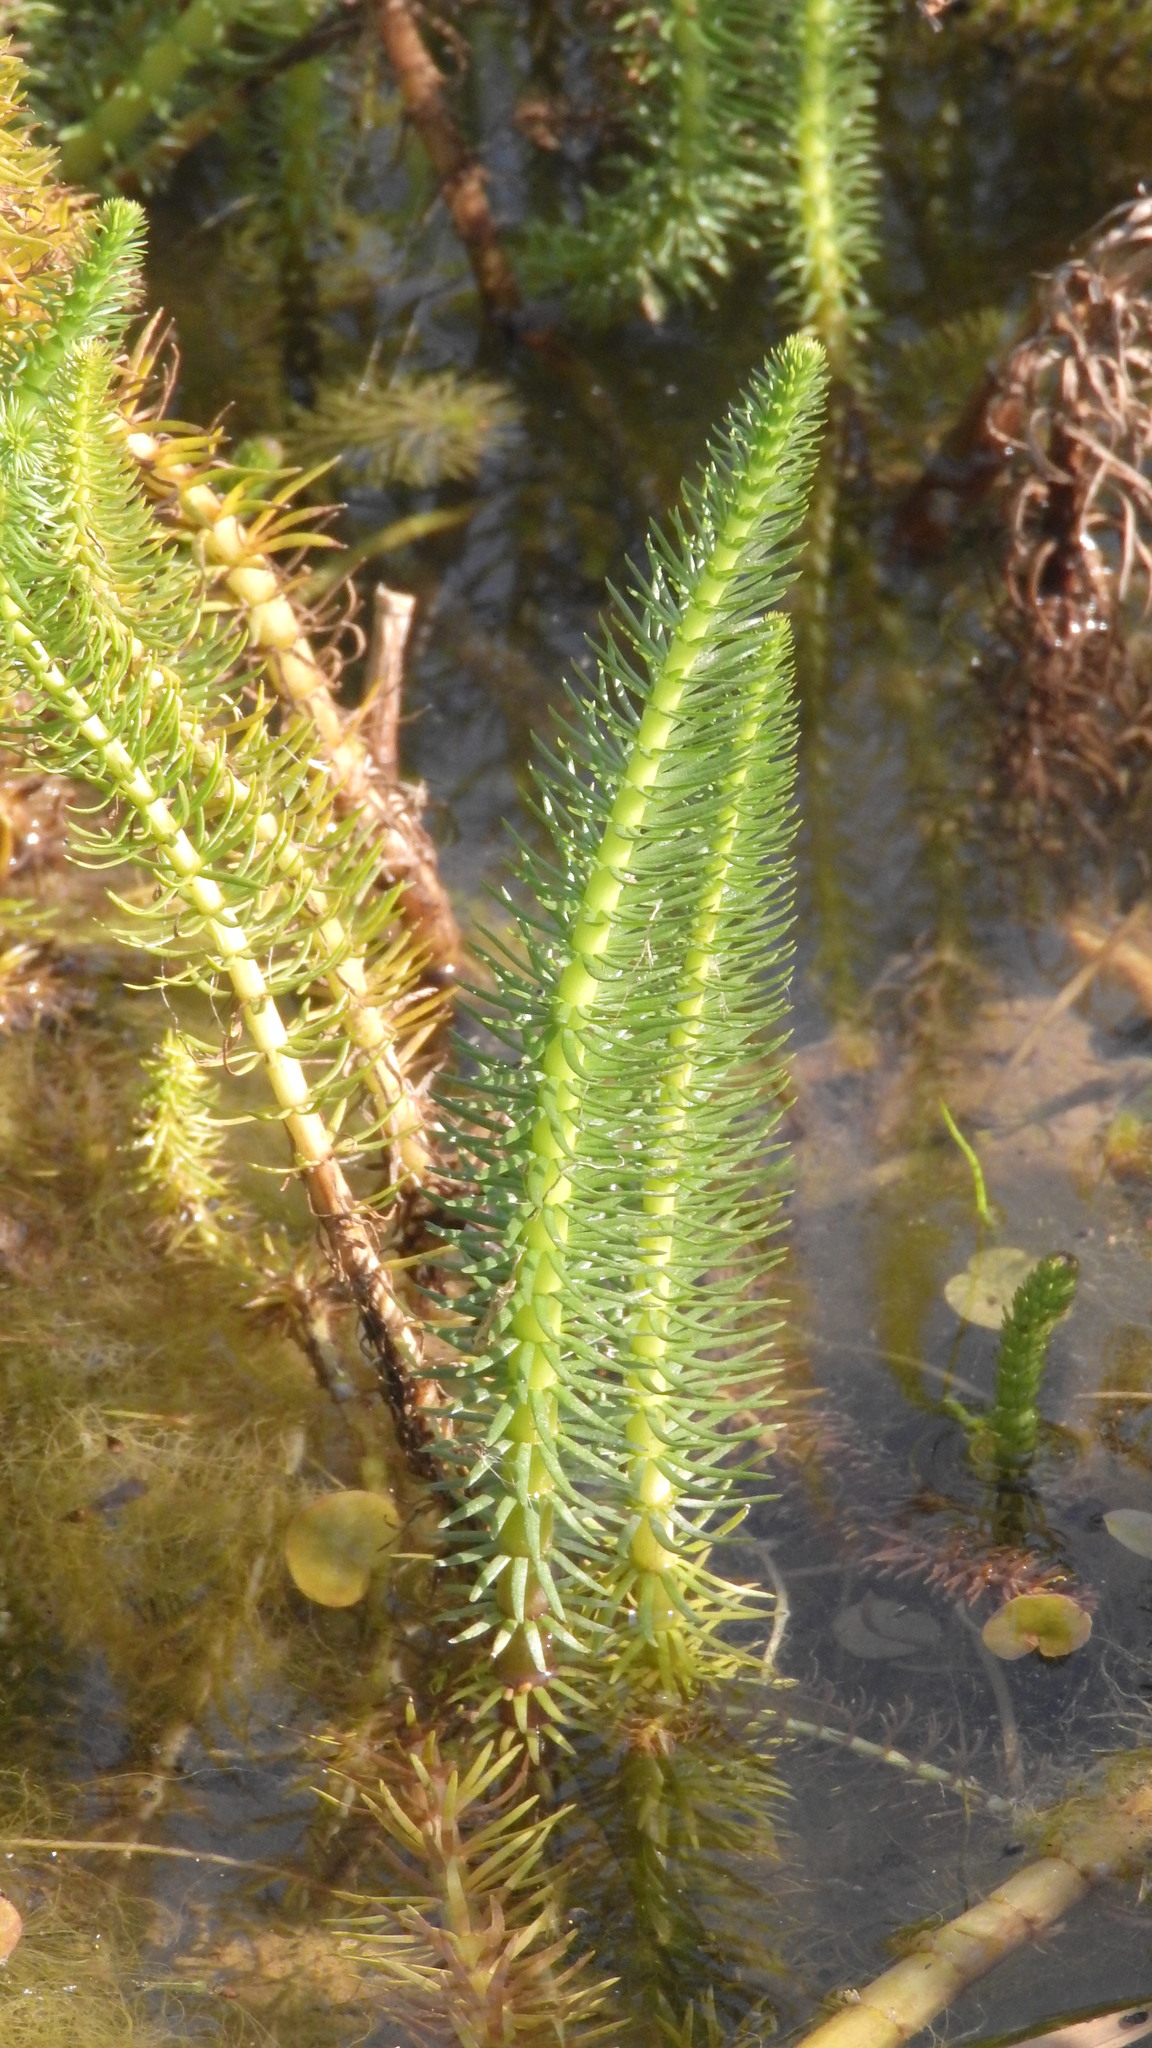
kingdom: Plantae
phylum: Tracheophyta
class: Magnoliopsida
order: Lamiales
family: Plantaginaceae
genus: Hippuris
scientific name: Hippuris vulgaris
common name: Mare's-tail
